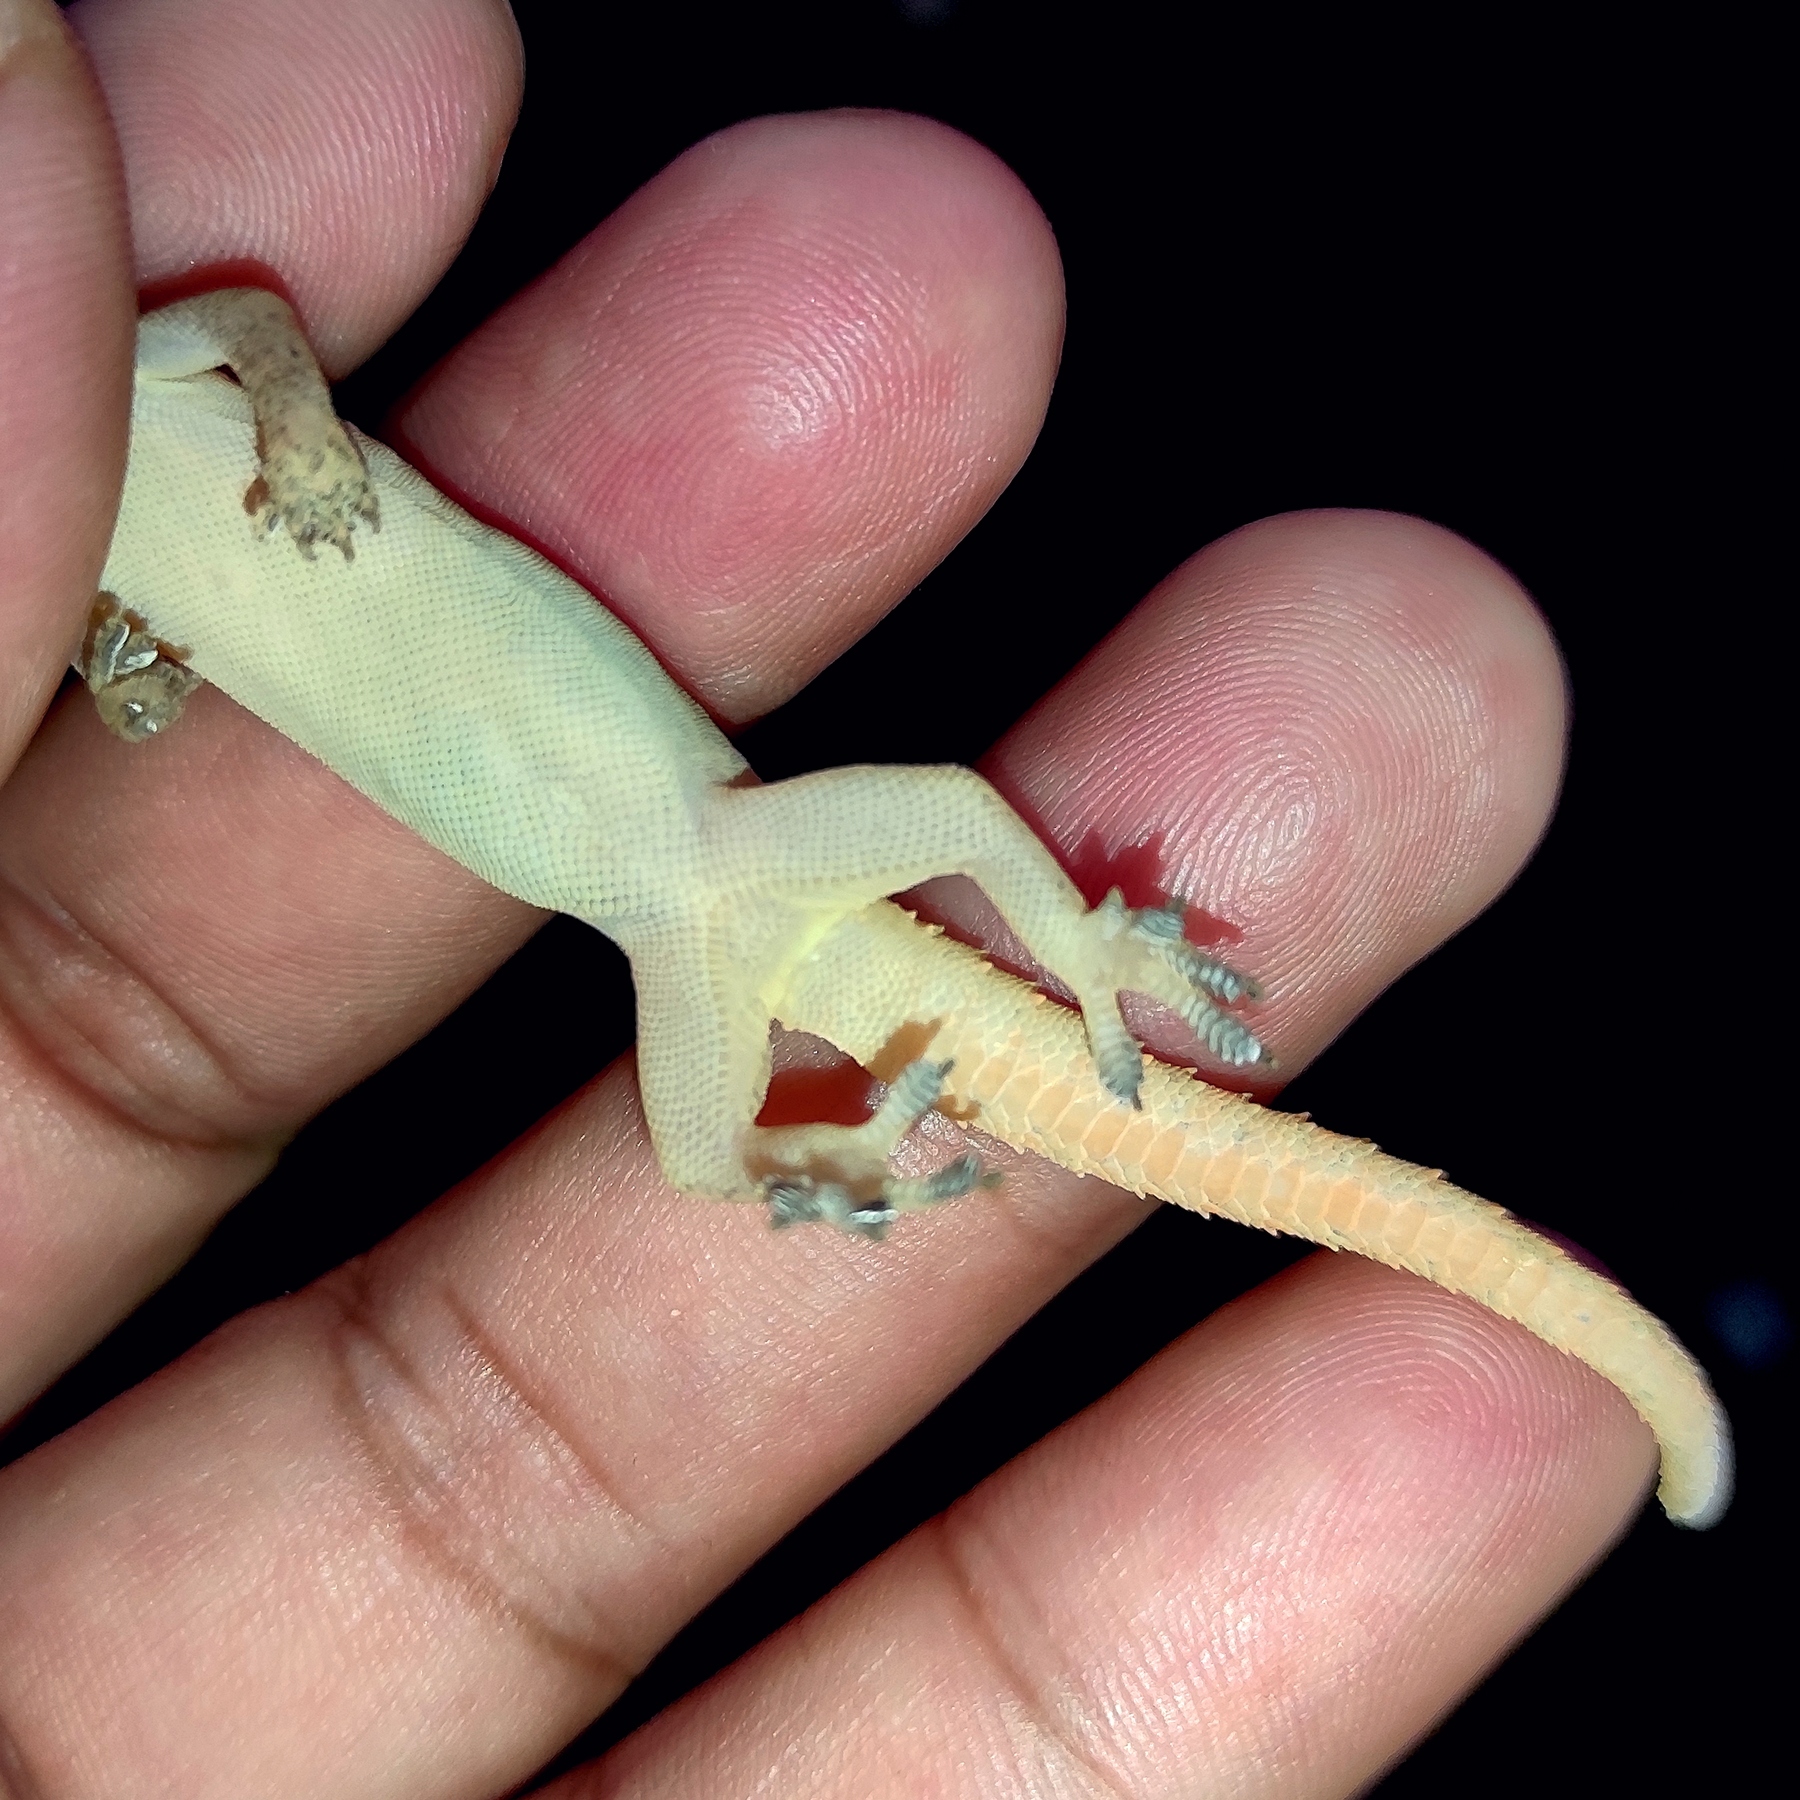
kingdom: Animalia
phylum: Chordata
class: Squamata
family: Gekkonidae
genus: Hemidactylus
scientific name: Hemidactylus frenatus
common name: Common house gecko
